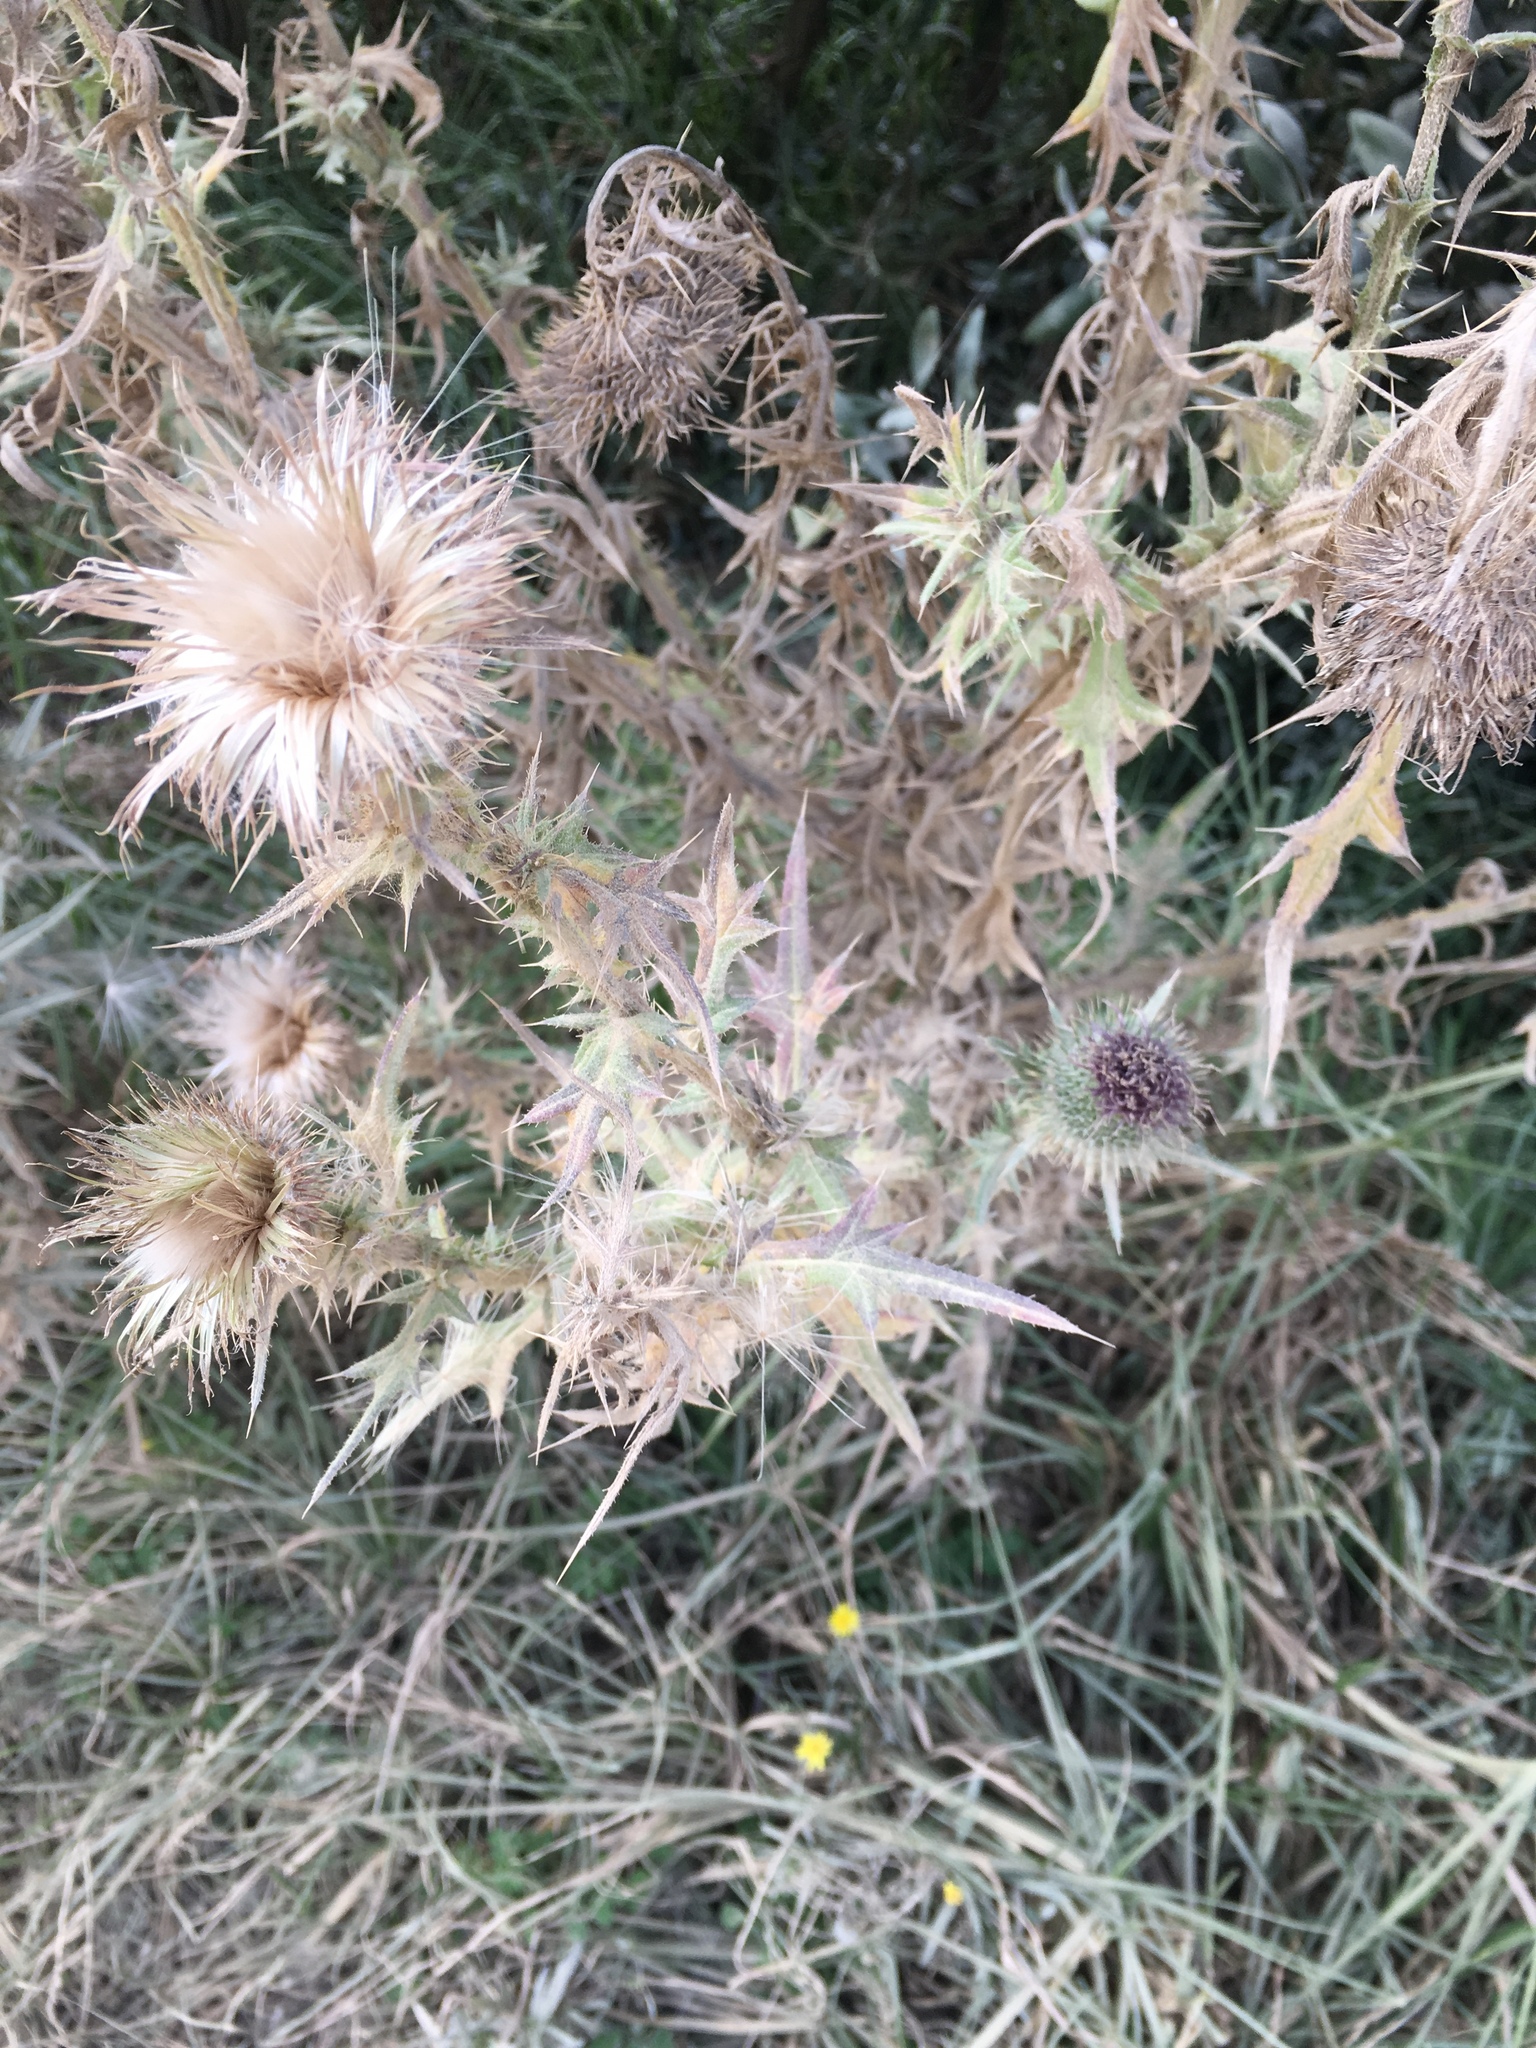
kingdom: Plantae
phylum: Tracheophyta
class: Magnoliopsida
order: Asterales
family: Asteraceae
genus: Cirsium
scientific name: Cirsium vulgare
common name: Bull thistle
